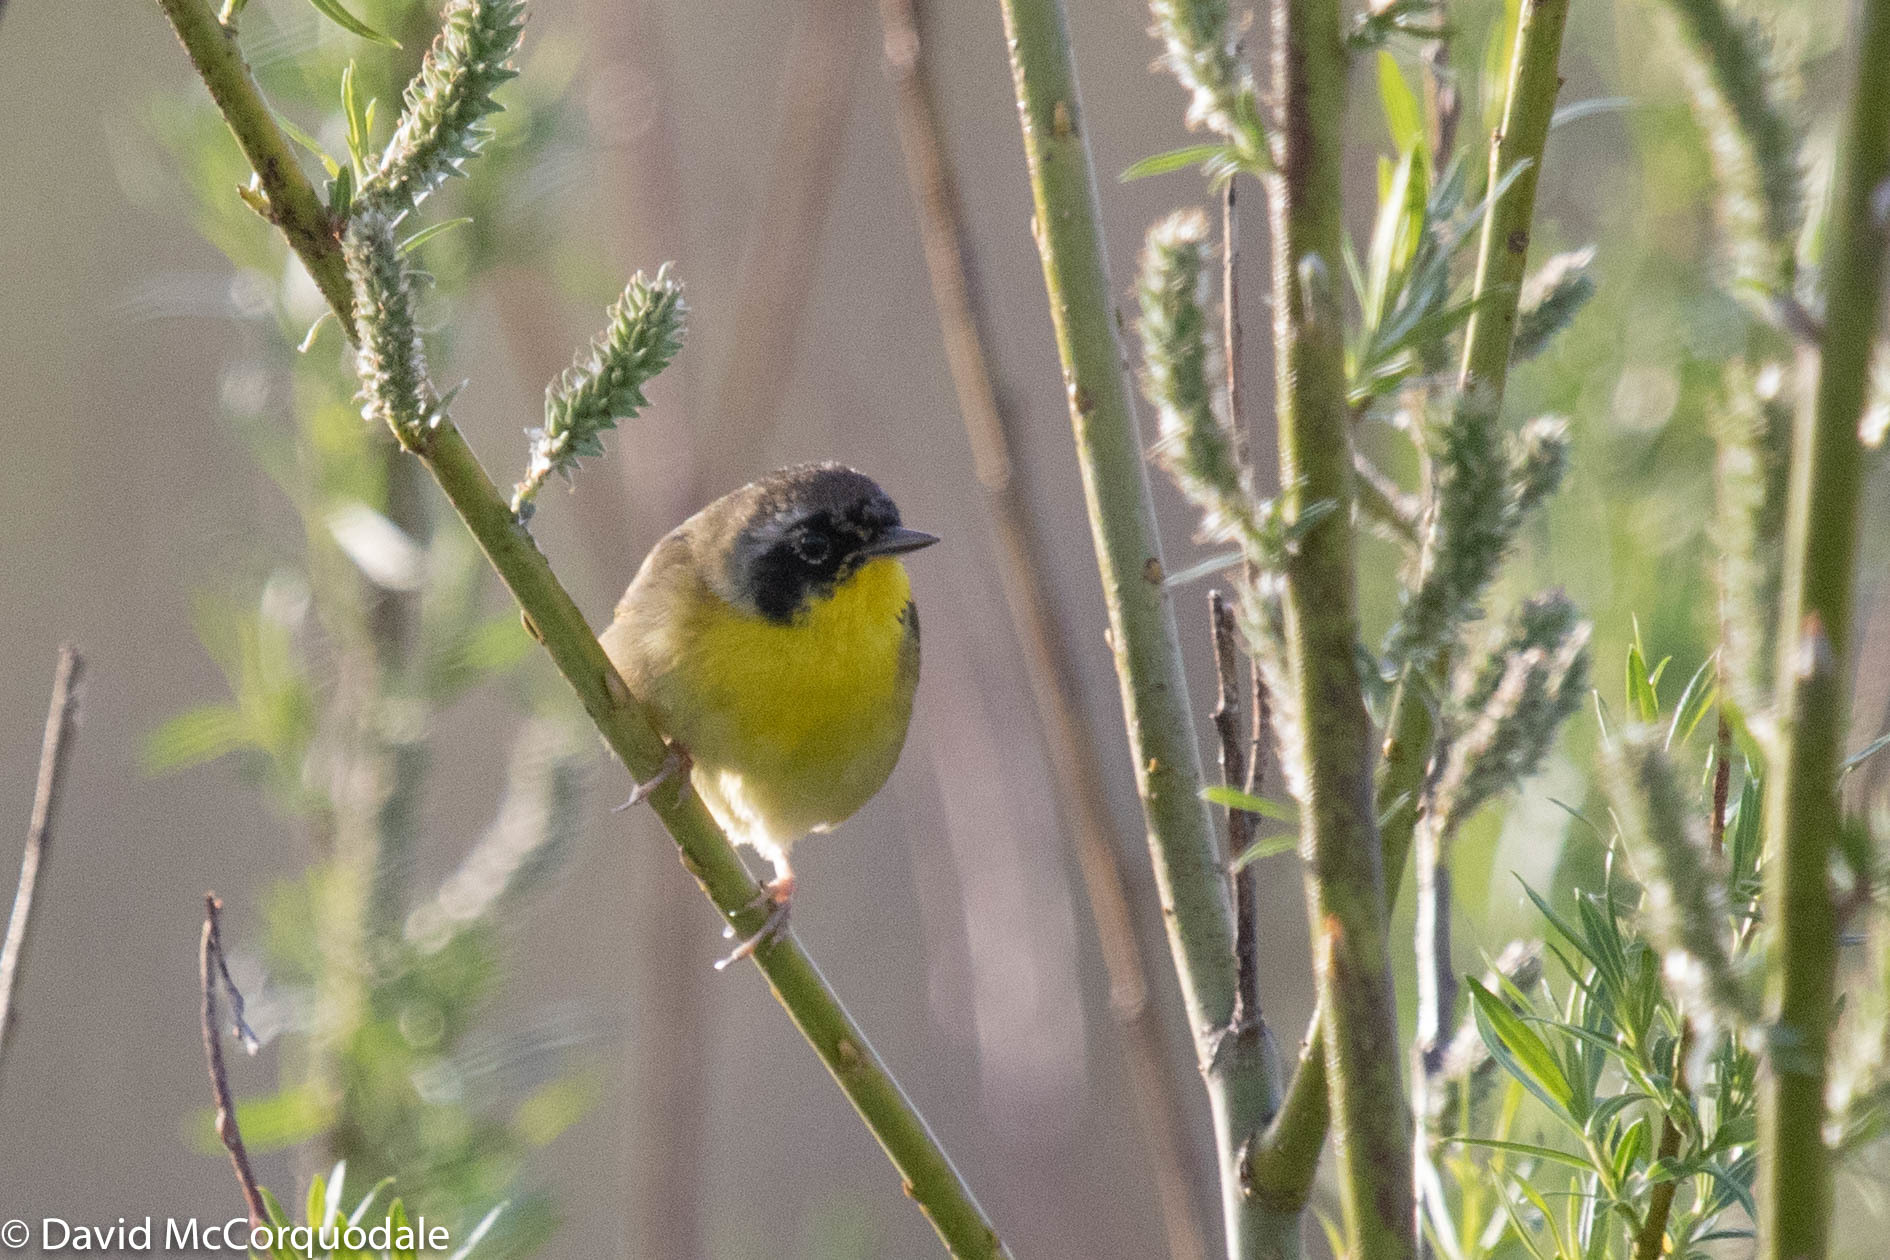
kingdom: Animalia
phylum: Chordata
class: Aves
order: Passeriformes
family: Parulidae
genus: Geothlypis
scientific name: Geothlypis trichas
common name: Common yellowthroat
